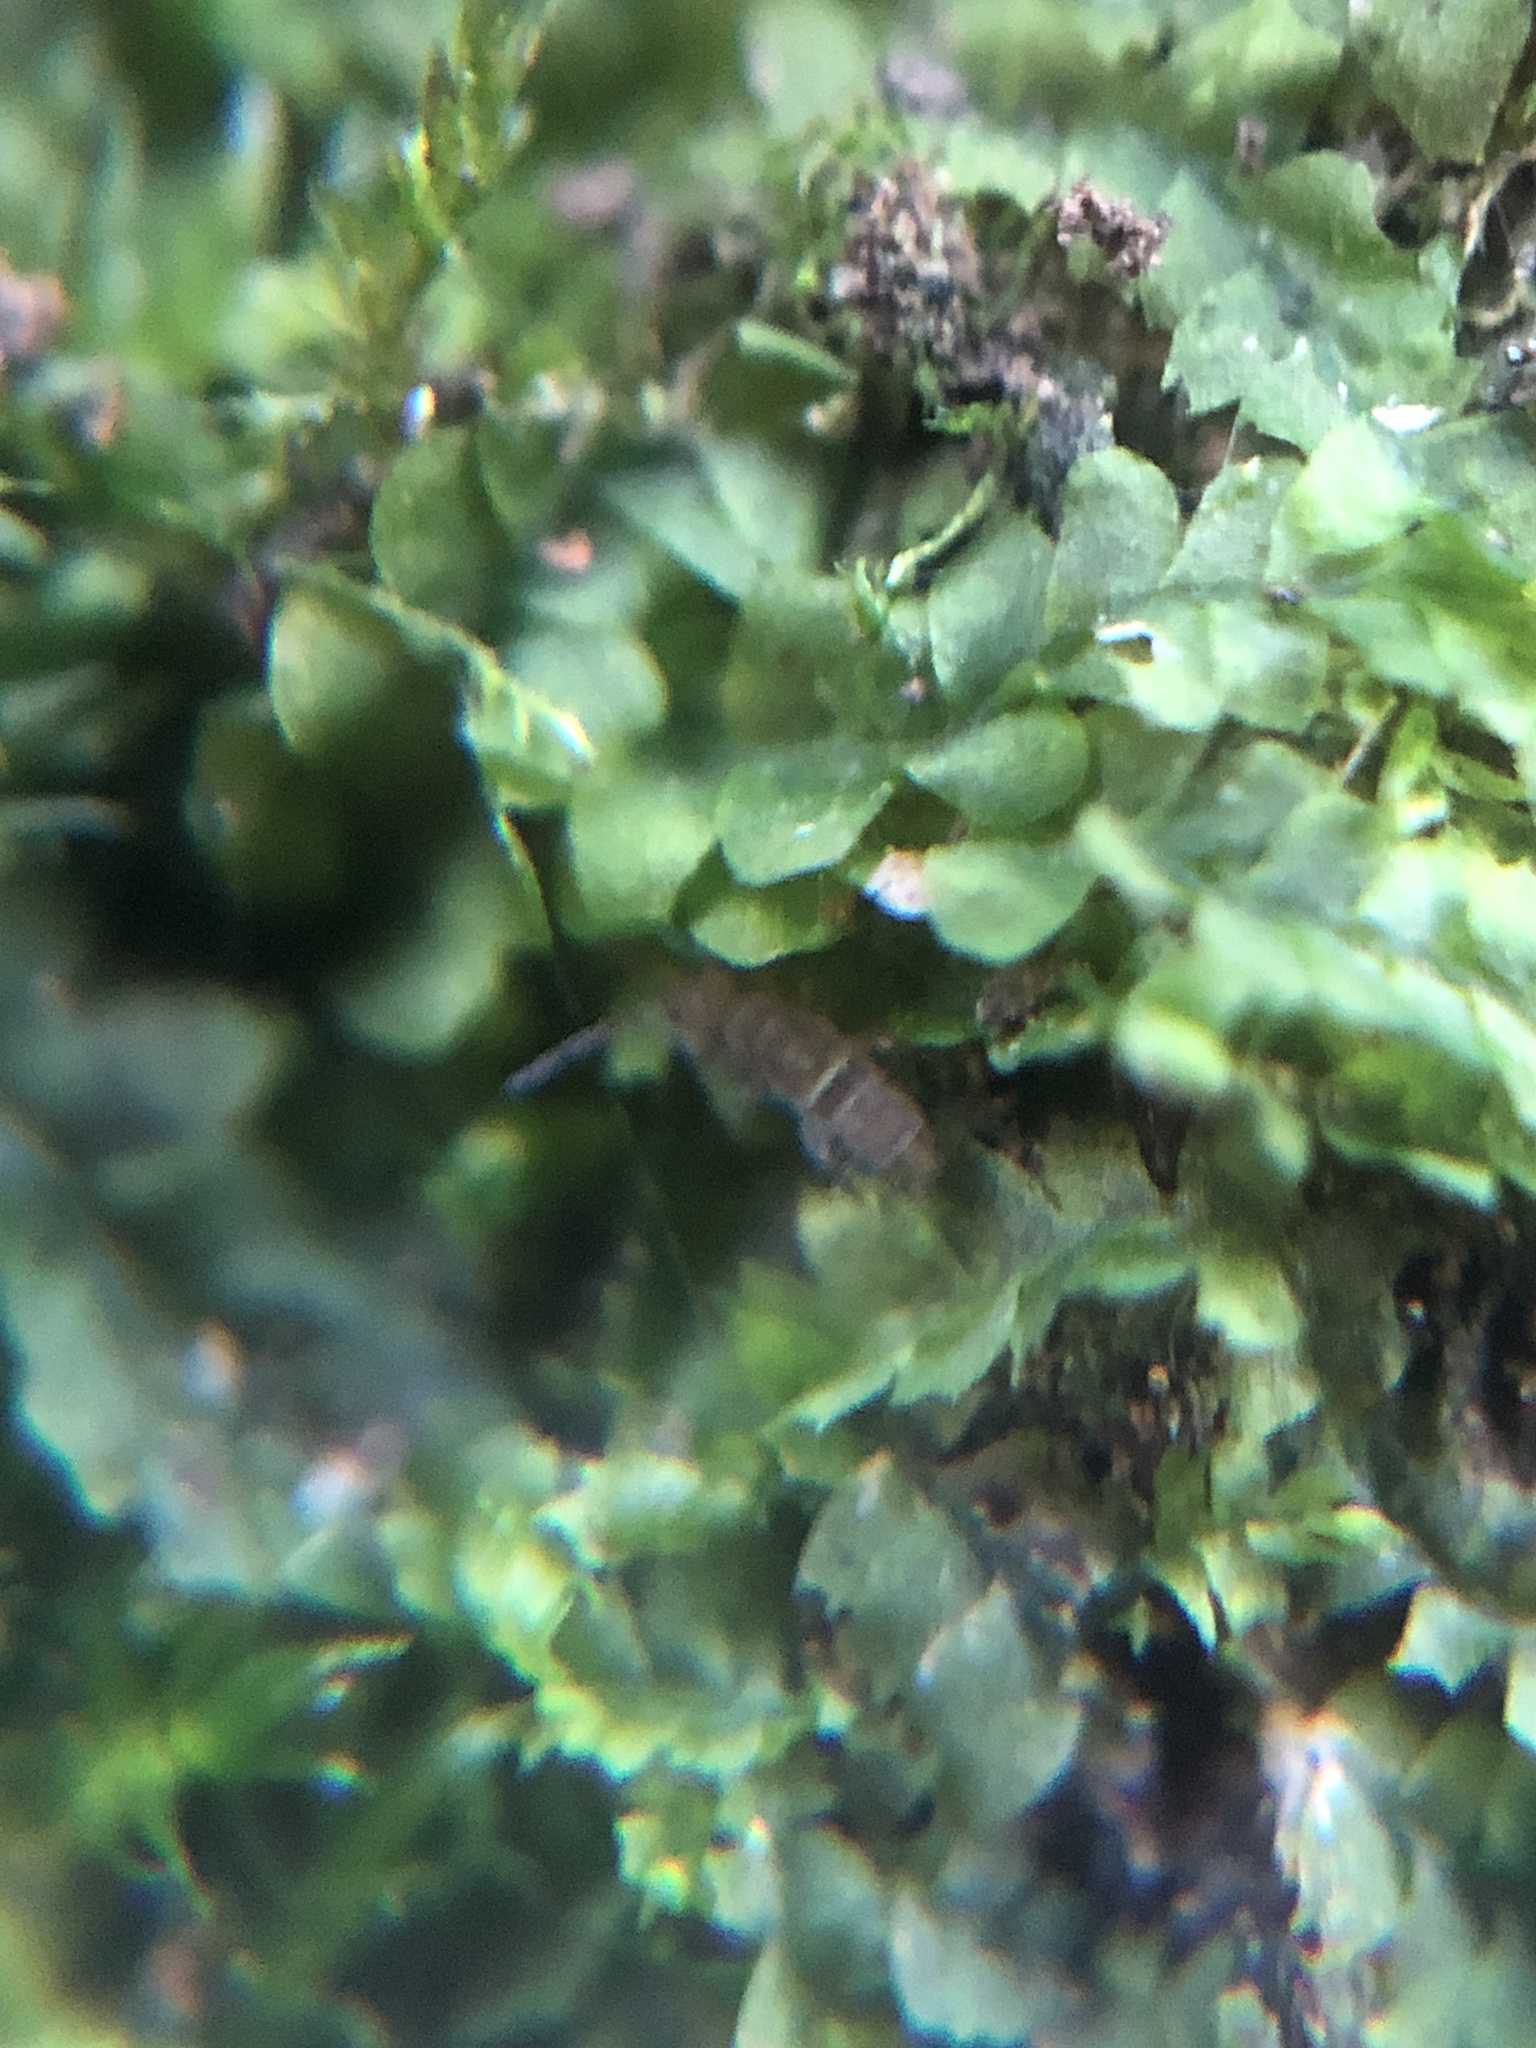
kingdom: Plantae
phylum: Marchantiophyta
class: Jungermanniopsida
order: Jungermanniales
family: Lophocoleaceae
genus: Lophocolea
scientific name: Lophocolea heterophylla
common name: Variable-leaved crestwort
